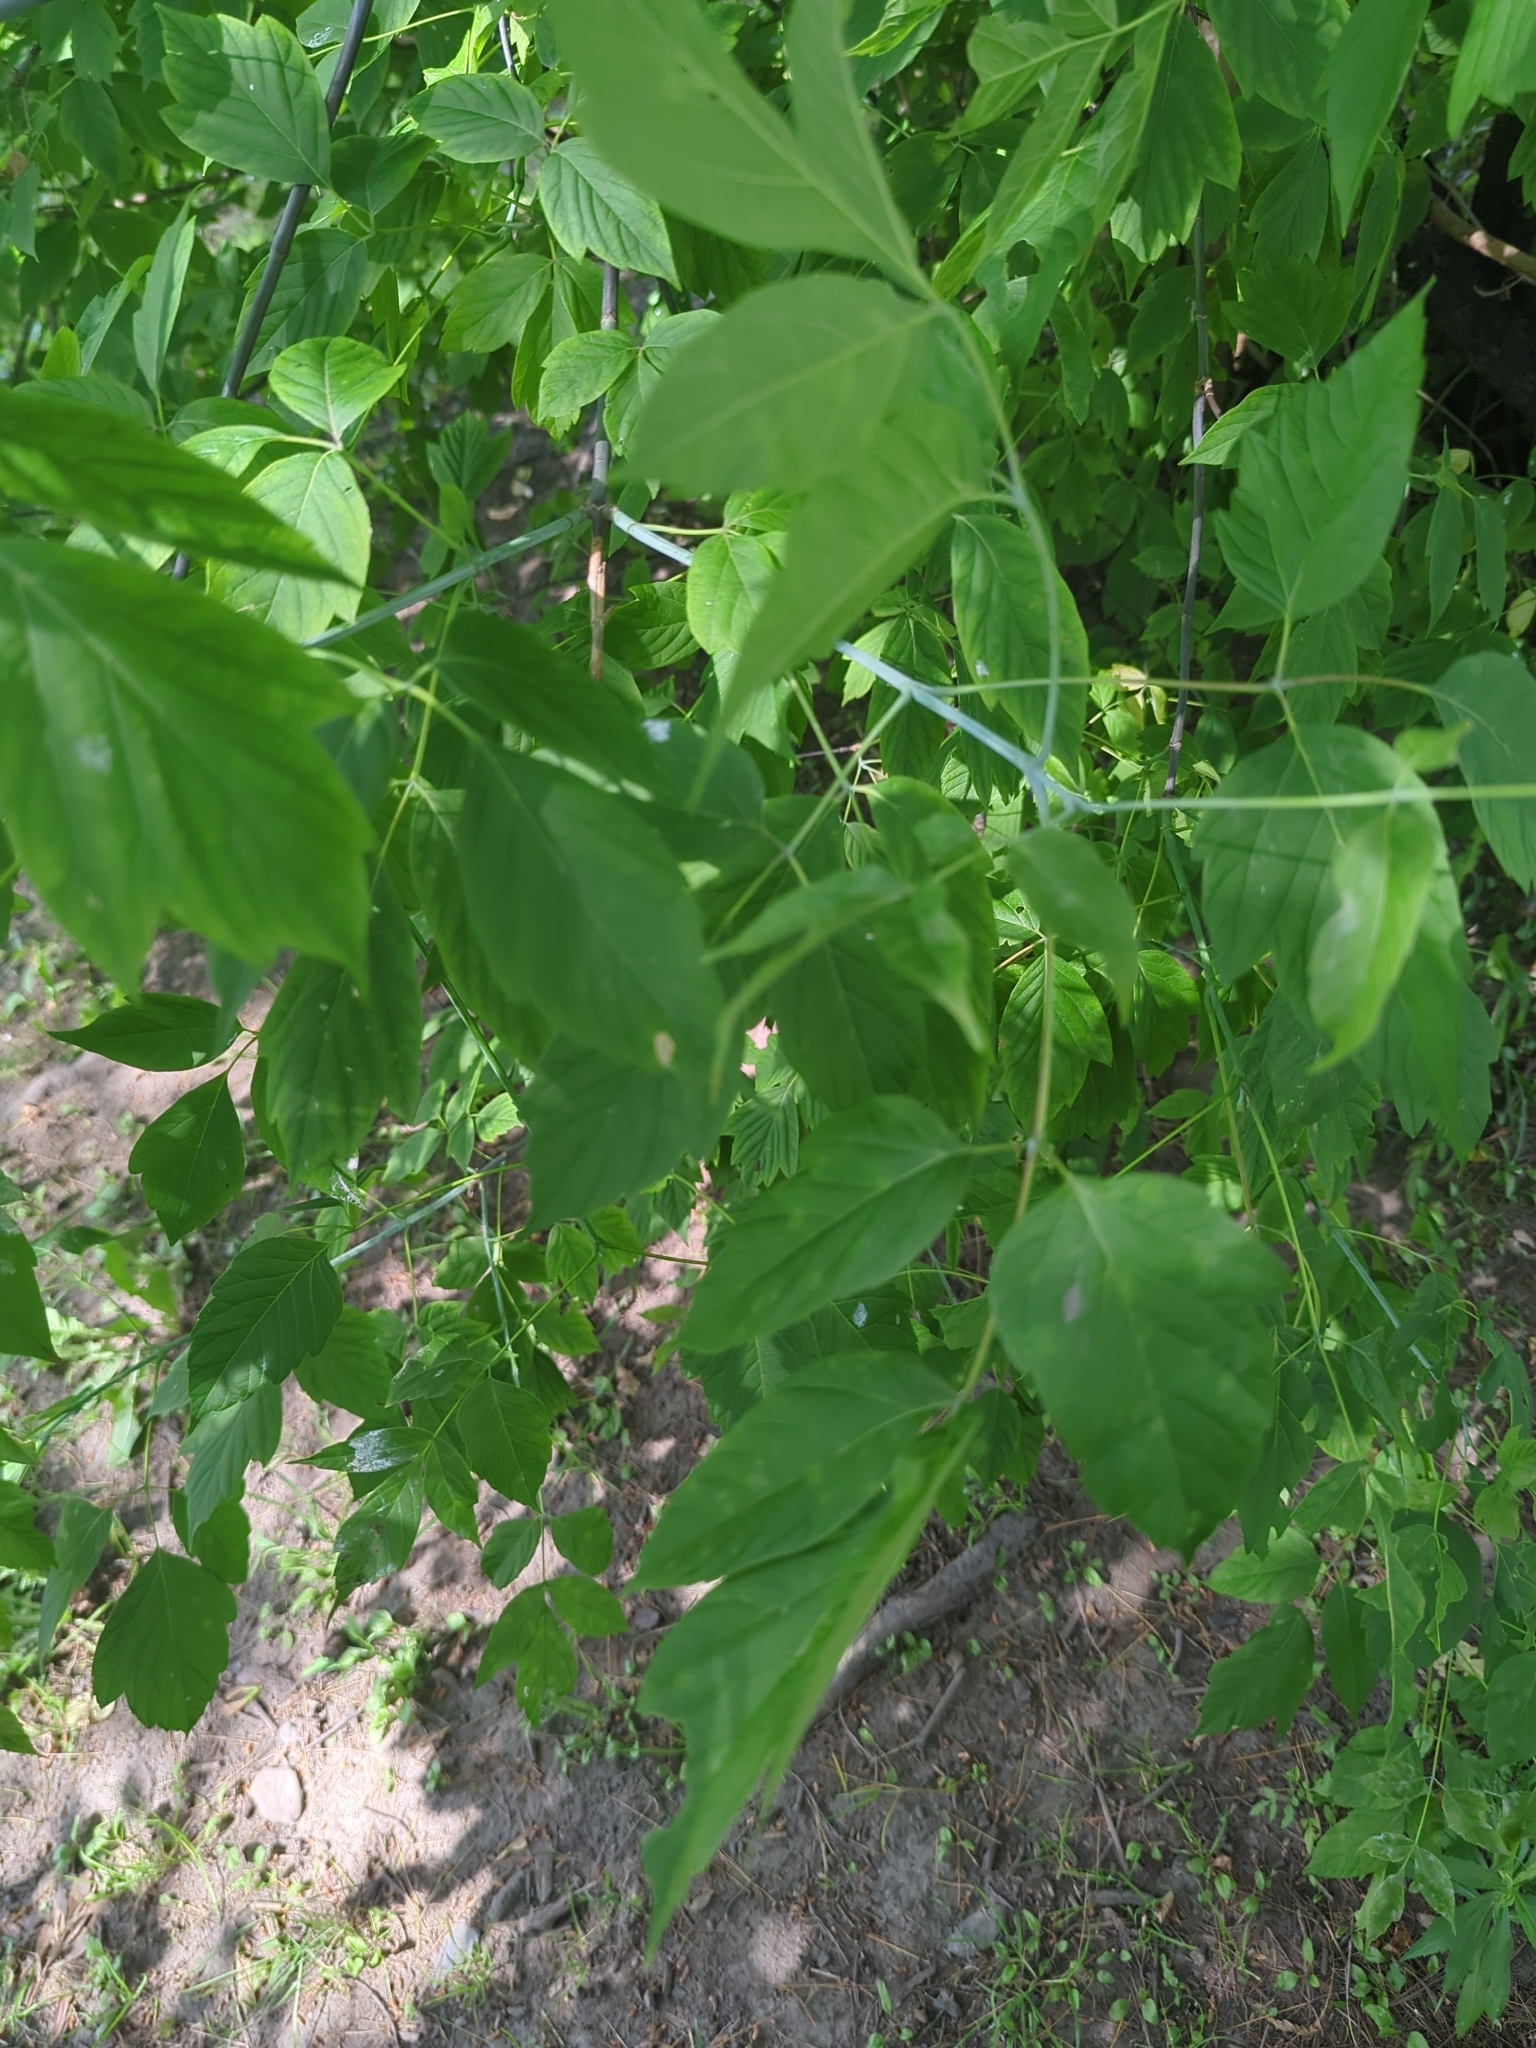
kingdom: Plantae
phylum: Tracheophyta
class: Magnoliopsida
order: Sapindales
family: Sapindaceae
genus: Acer
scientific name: Acer negundo
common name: Ashleaf maple
